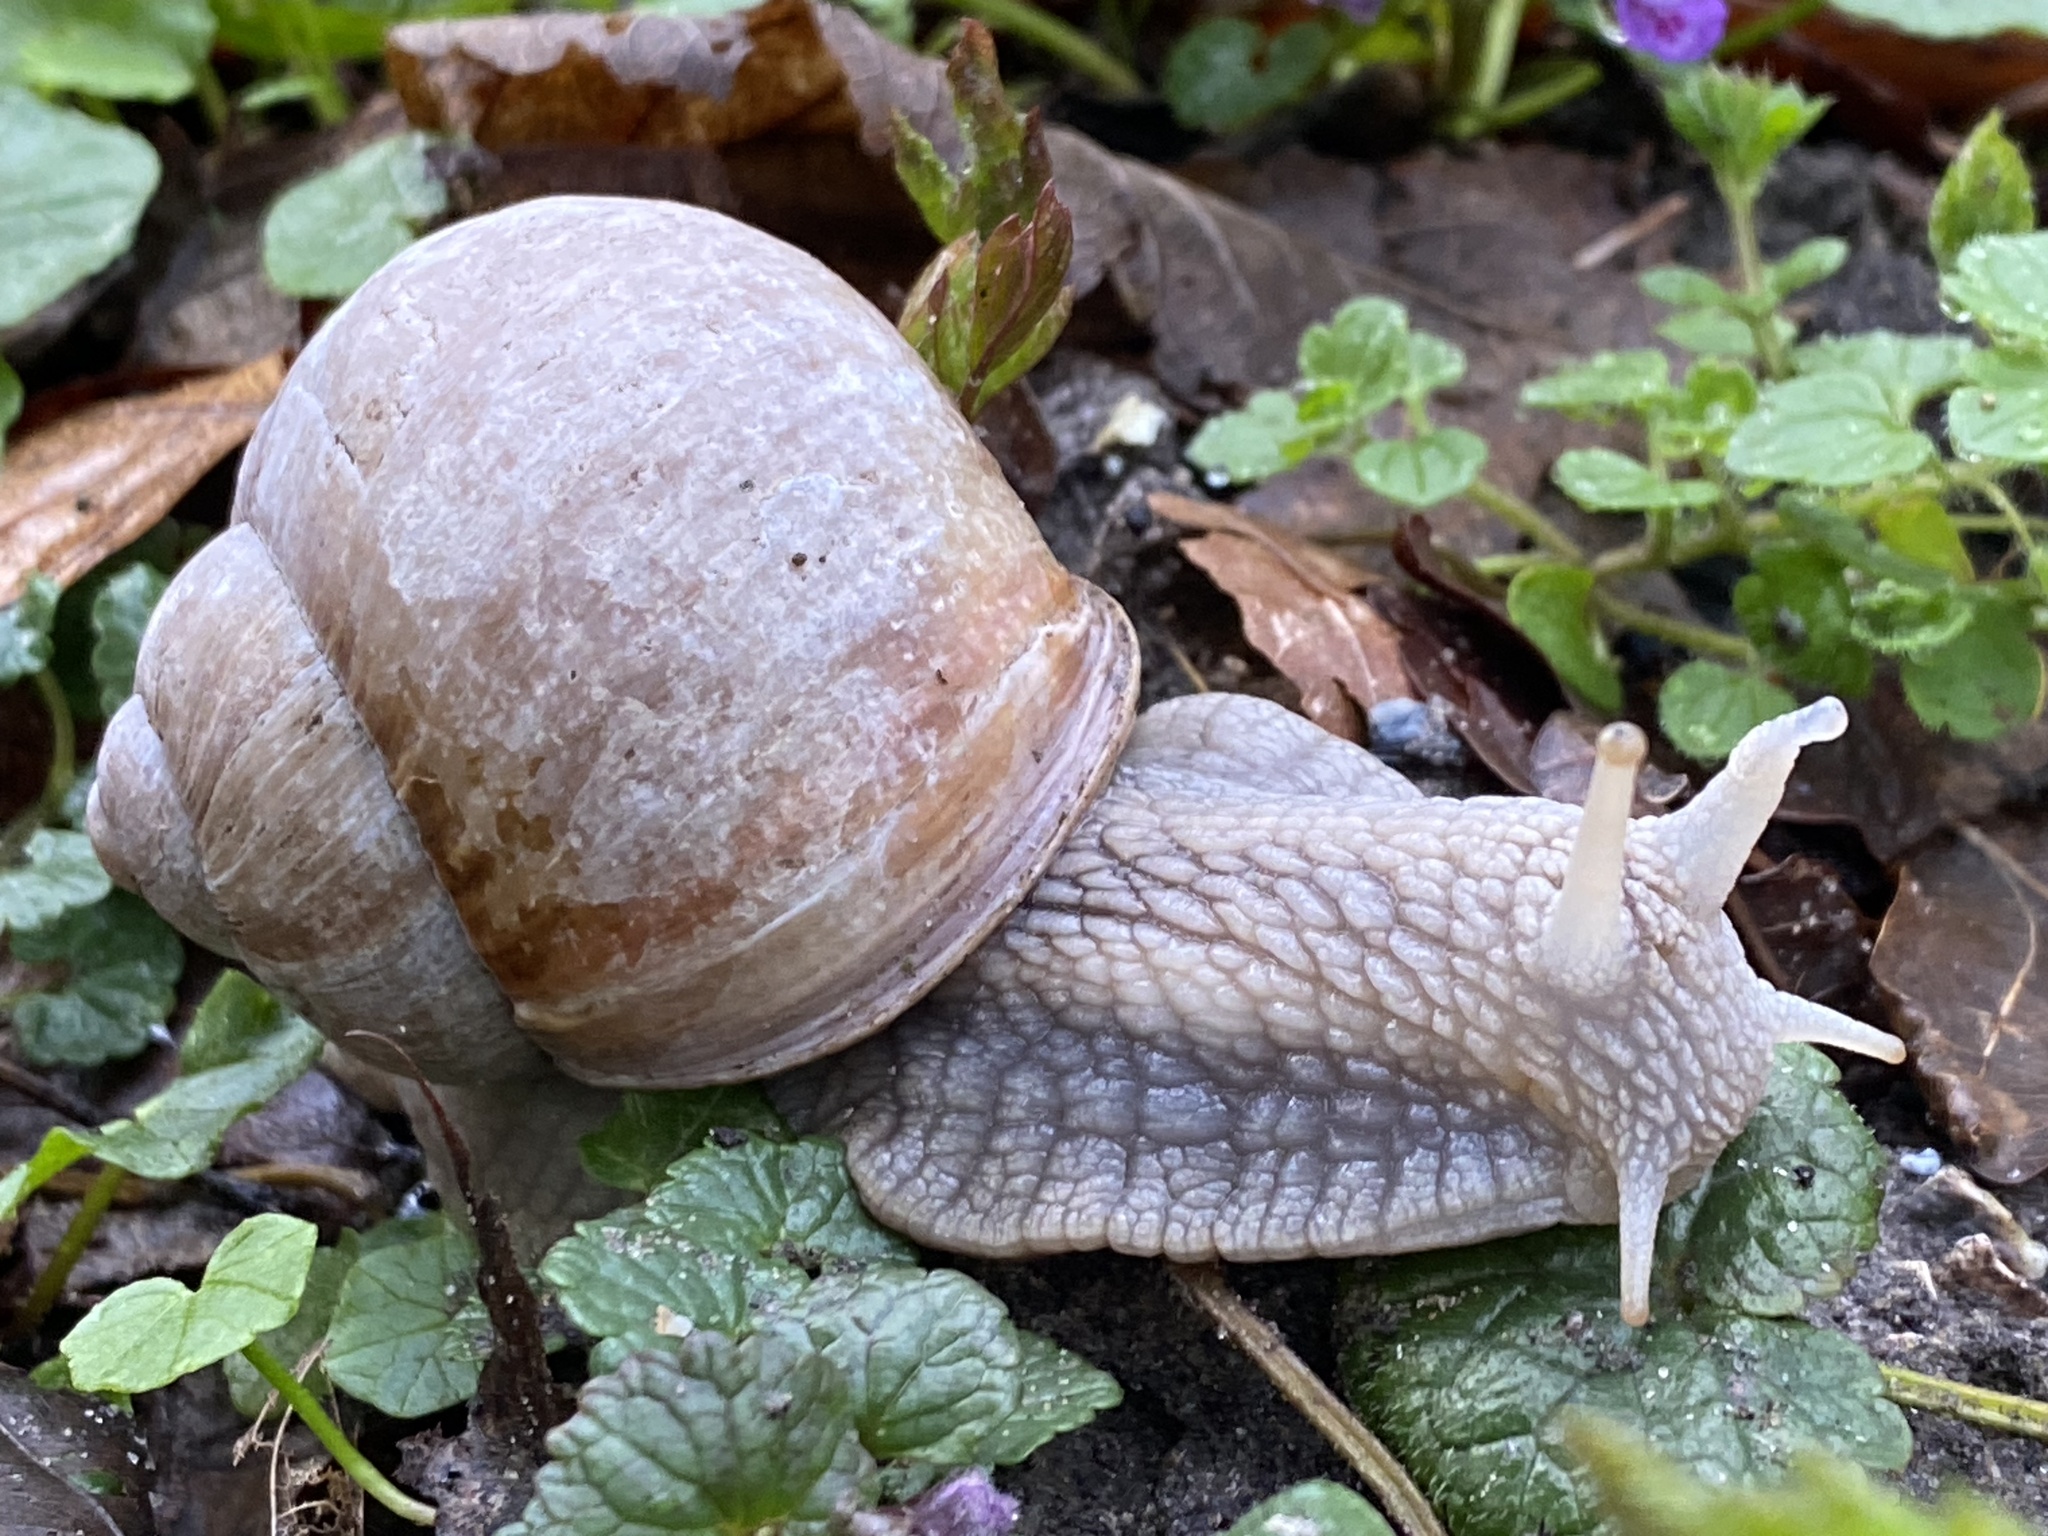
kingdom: Animalia
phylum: Mollusca
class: Gastropoda
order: Stylommatophora
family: Helicidae
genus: Helix
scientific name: Helix pomatia
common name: Roman snail
